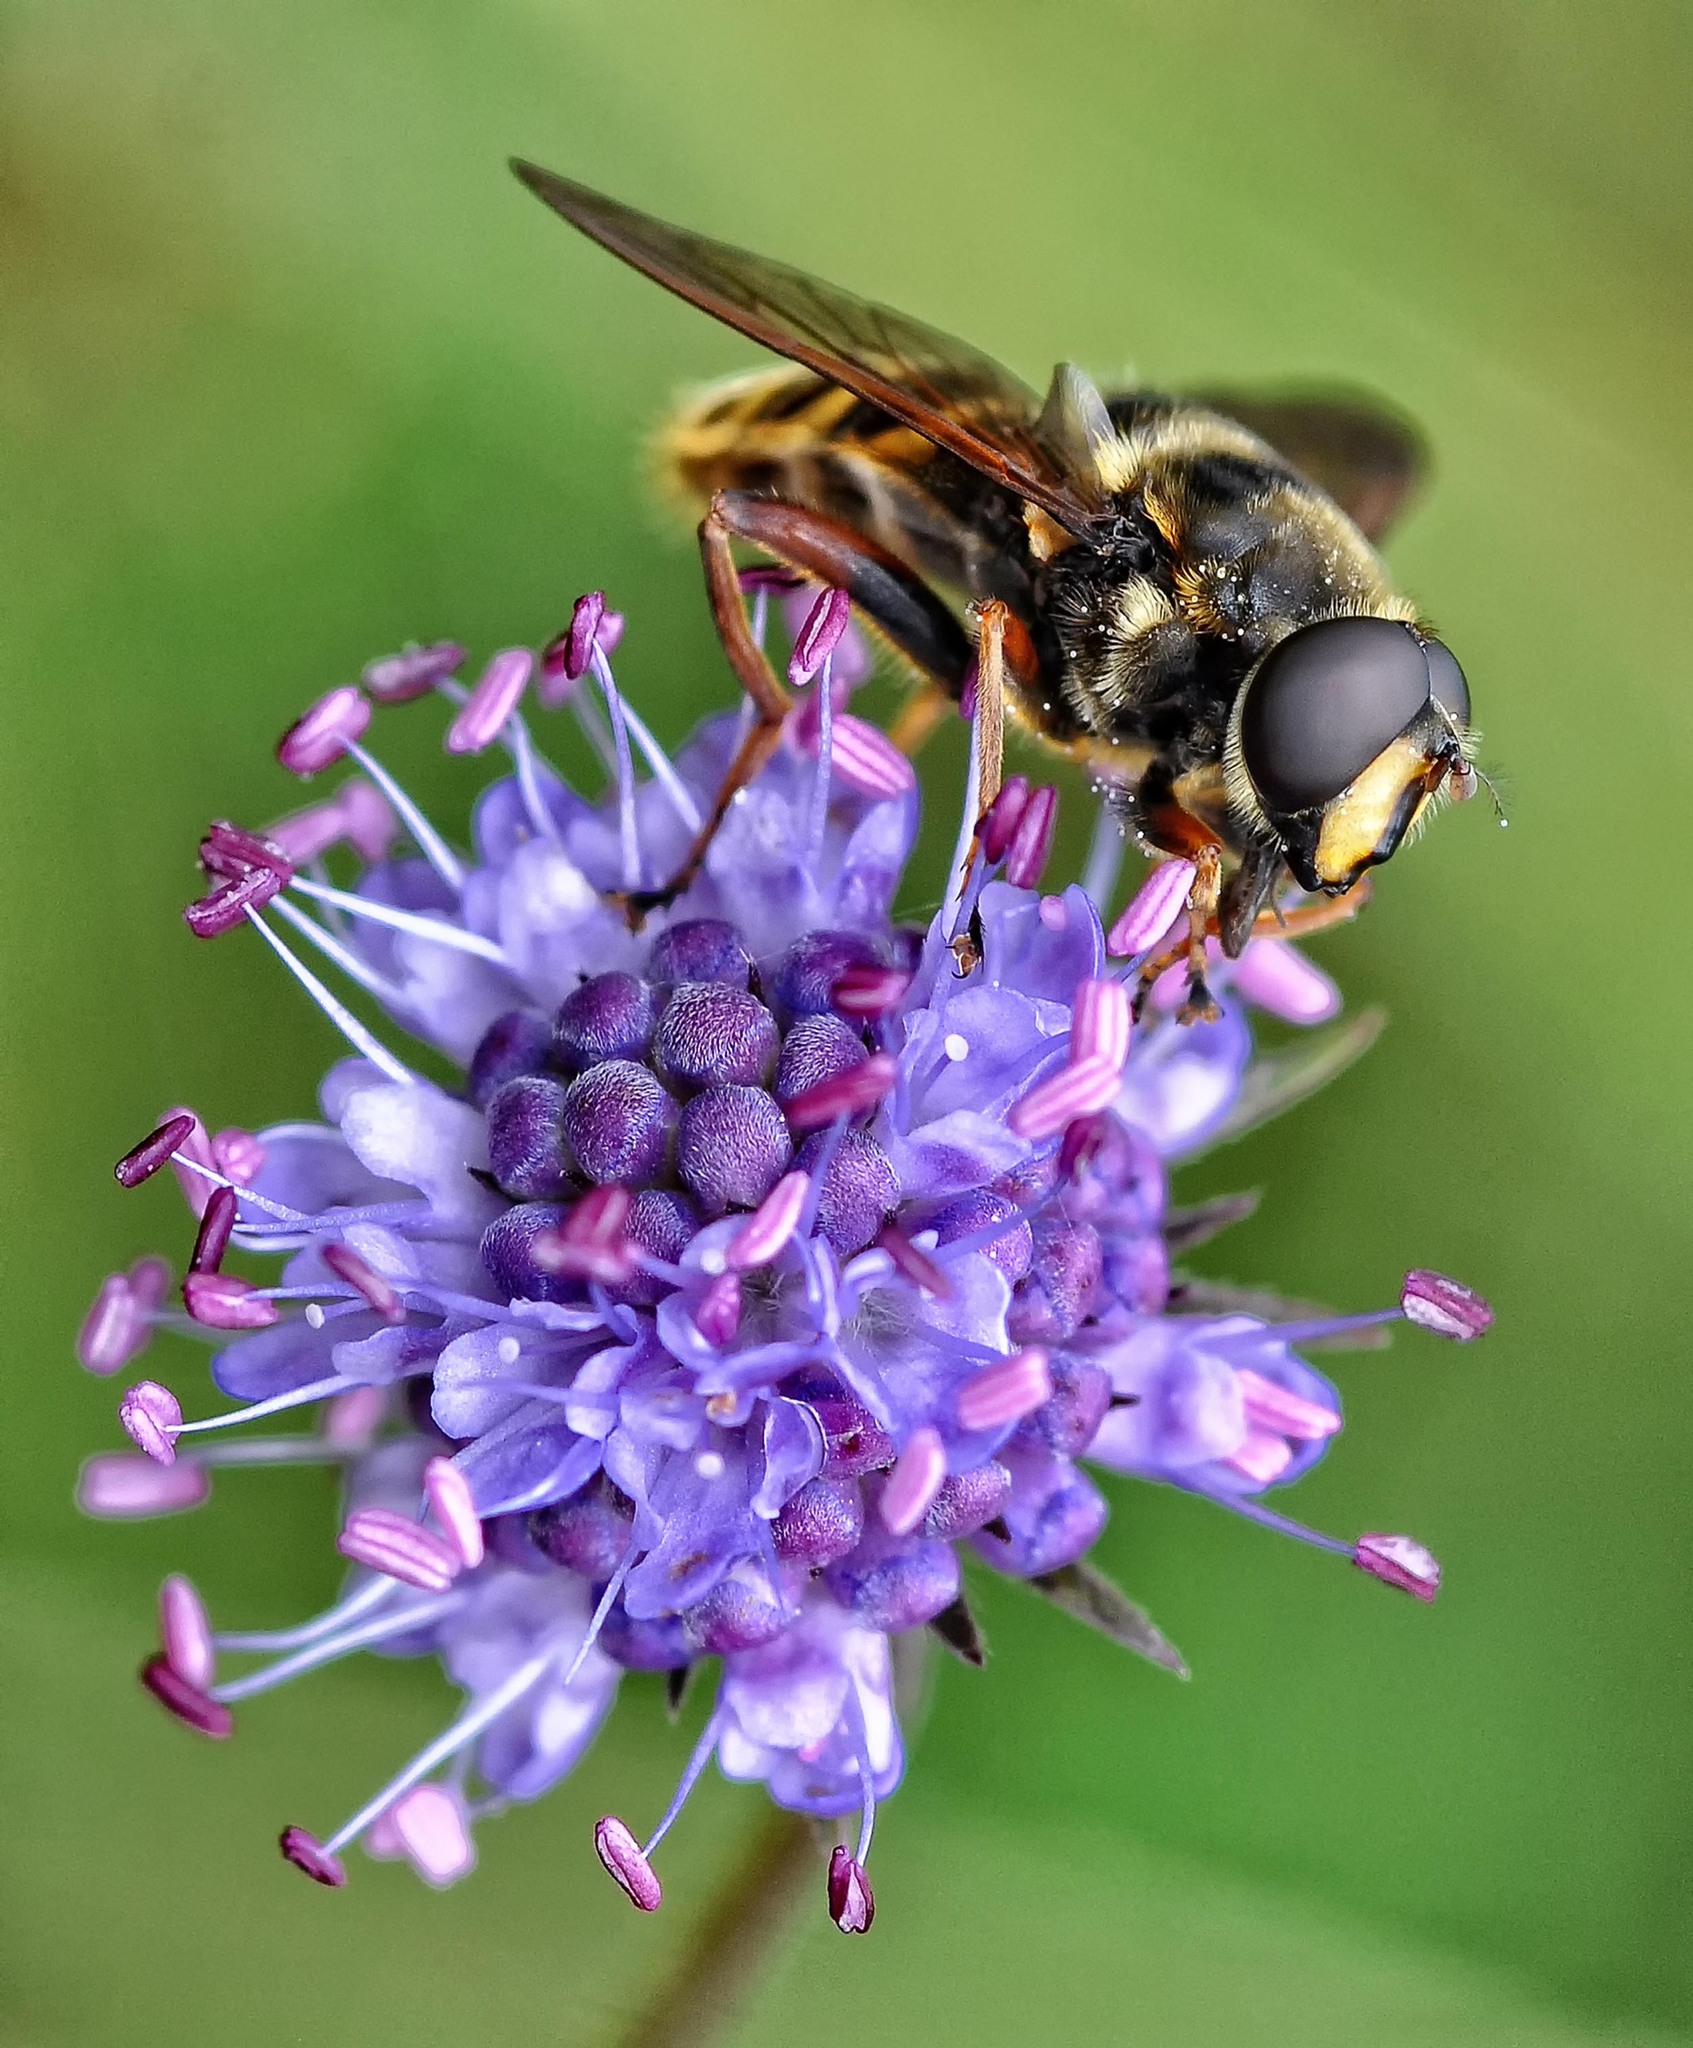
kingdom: Animalia
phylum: Arthropoda
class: Insecta
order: Diptera
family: Syrphidae
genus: Sericomyia
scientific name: Sericomyia silentis
